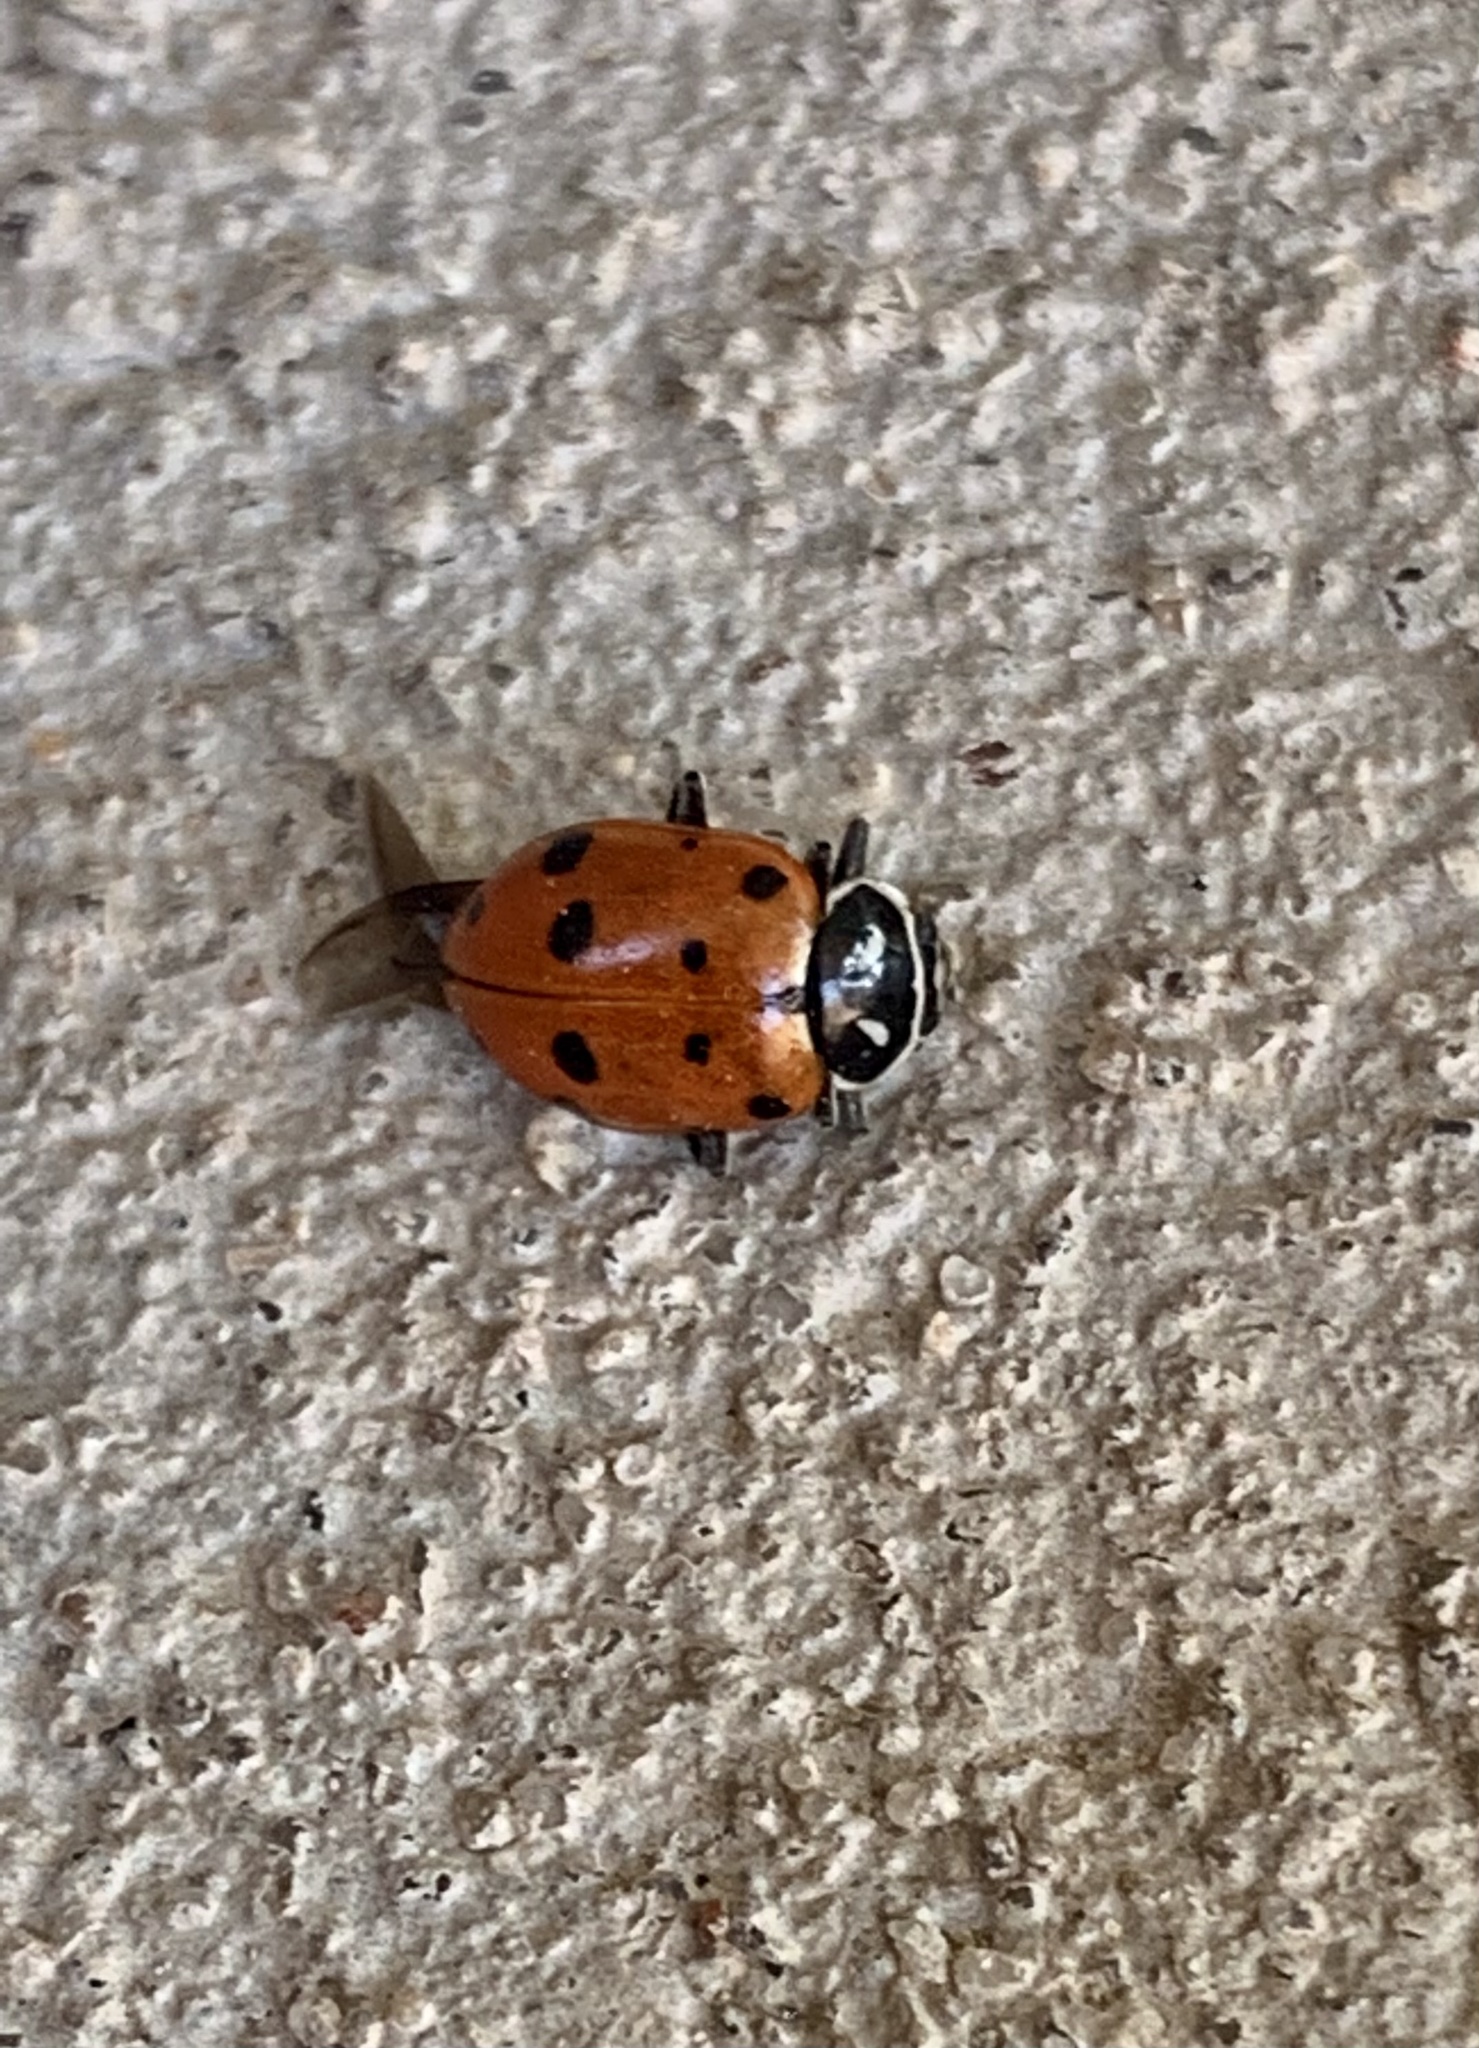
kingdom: Animalia
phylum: Arthropoda
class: Insecta
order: Coleoptera
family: Coccinellidae
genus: Hippodamia
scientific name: Hippodamia convergens
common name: Convergent lady beetle
